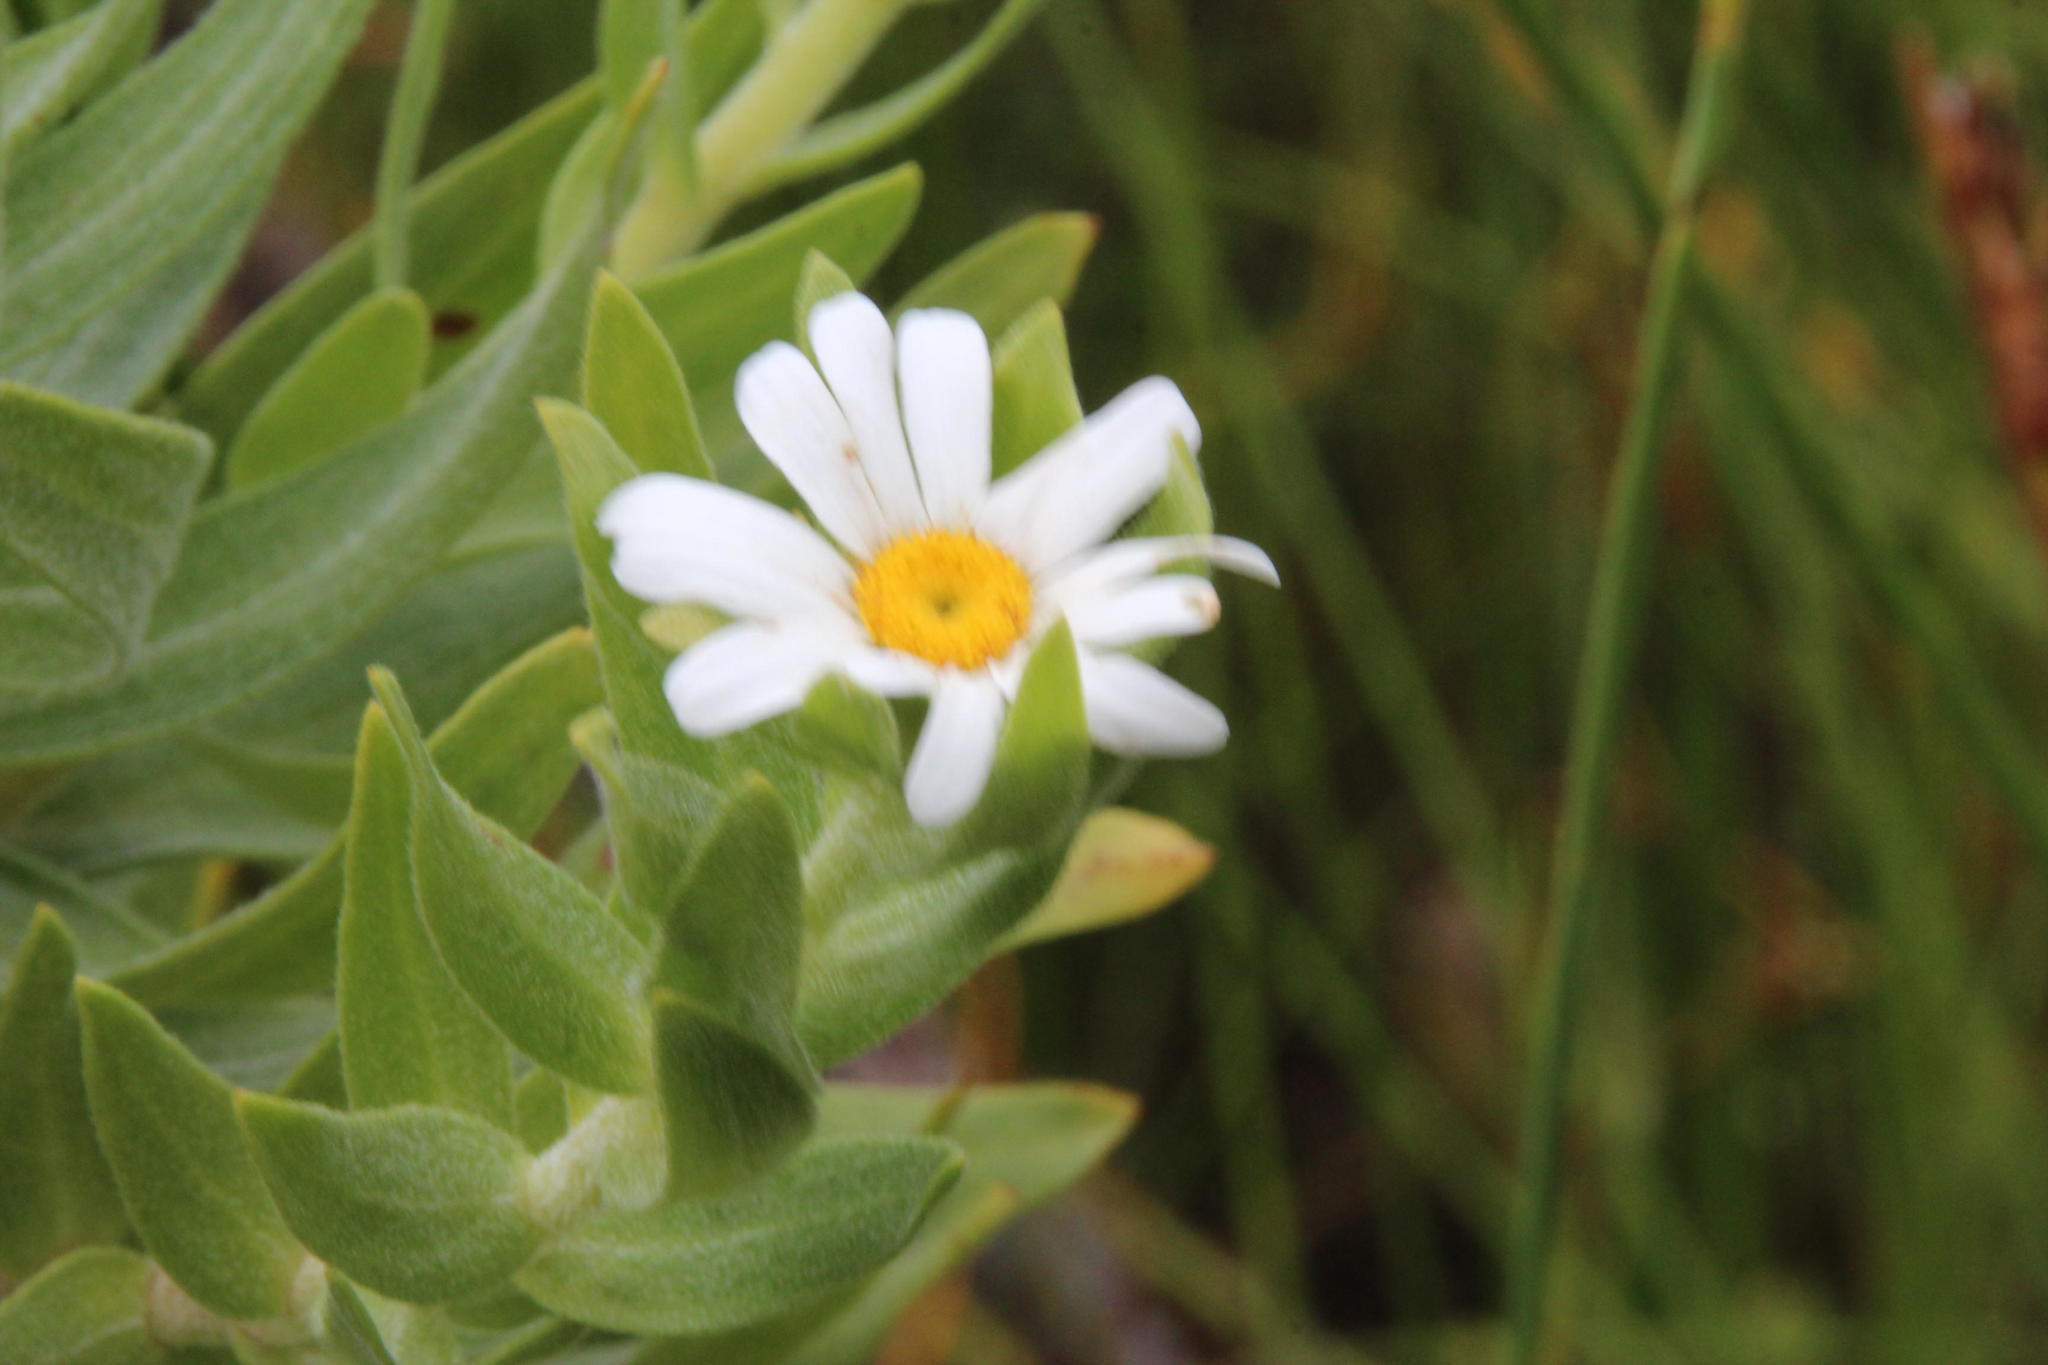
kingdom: Plantae
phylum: Tracheophyta
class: Magnoliopsida
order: Asterales
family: Asteraceae
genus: Osmitopsis
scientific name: Osmitopsis asteriscoides
